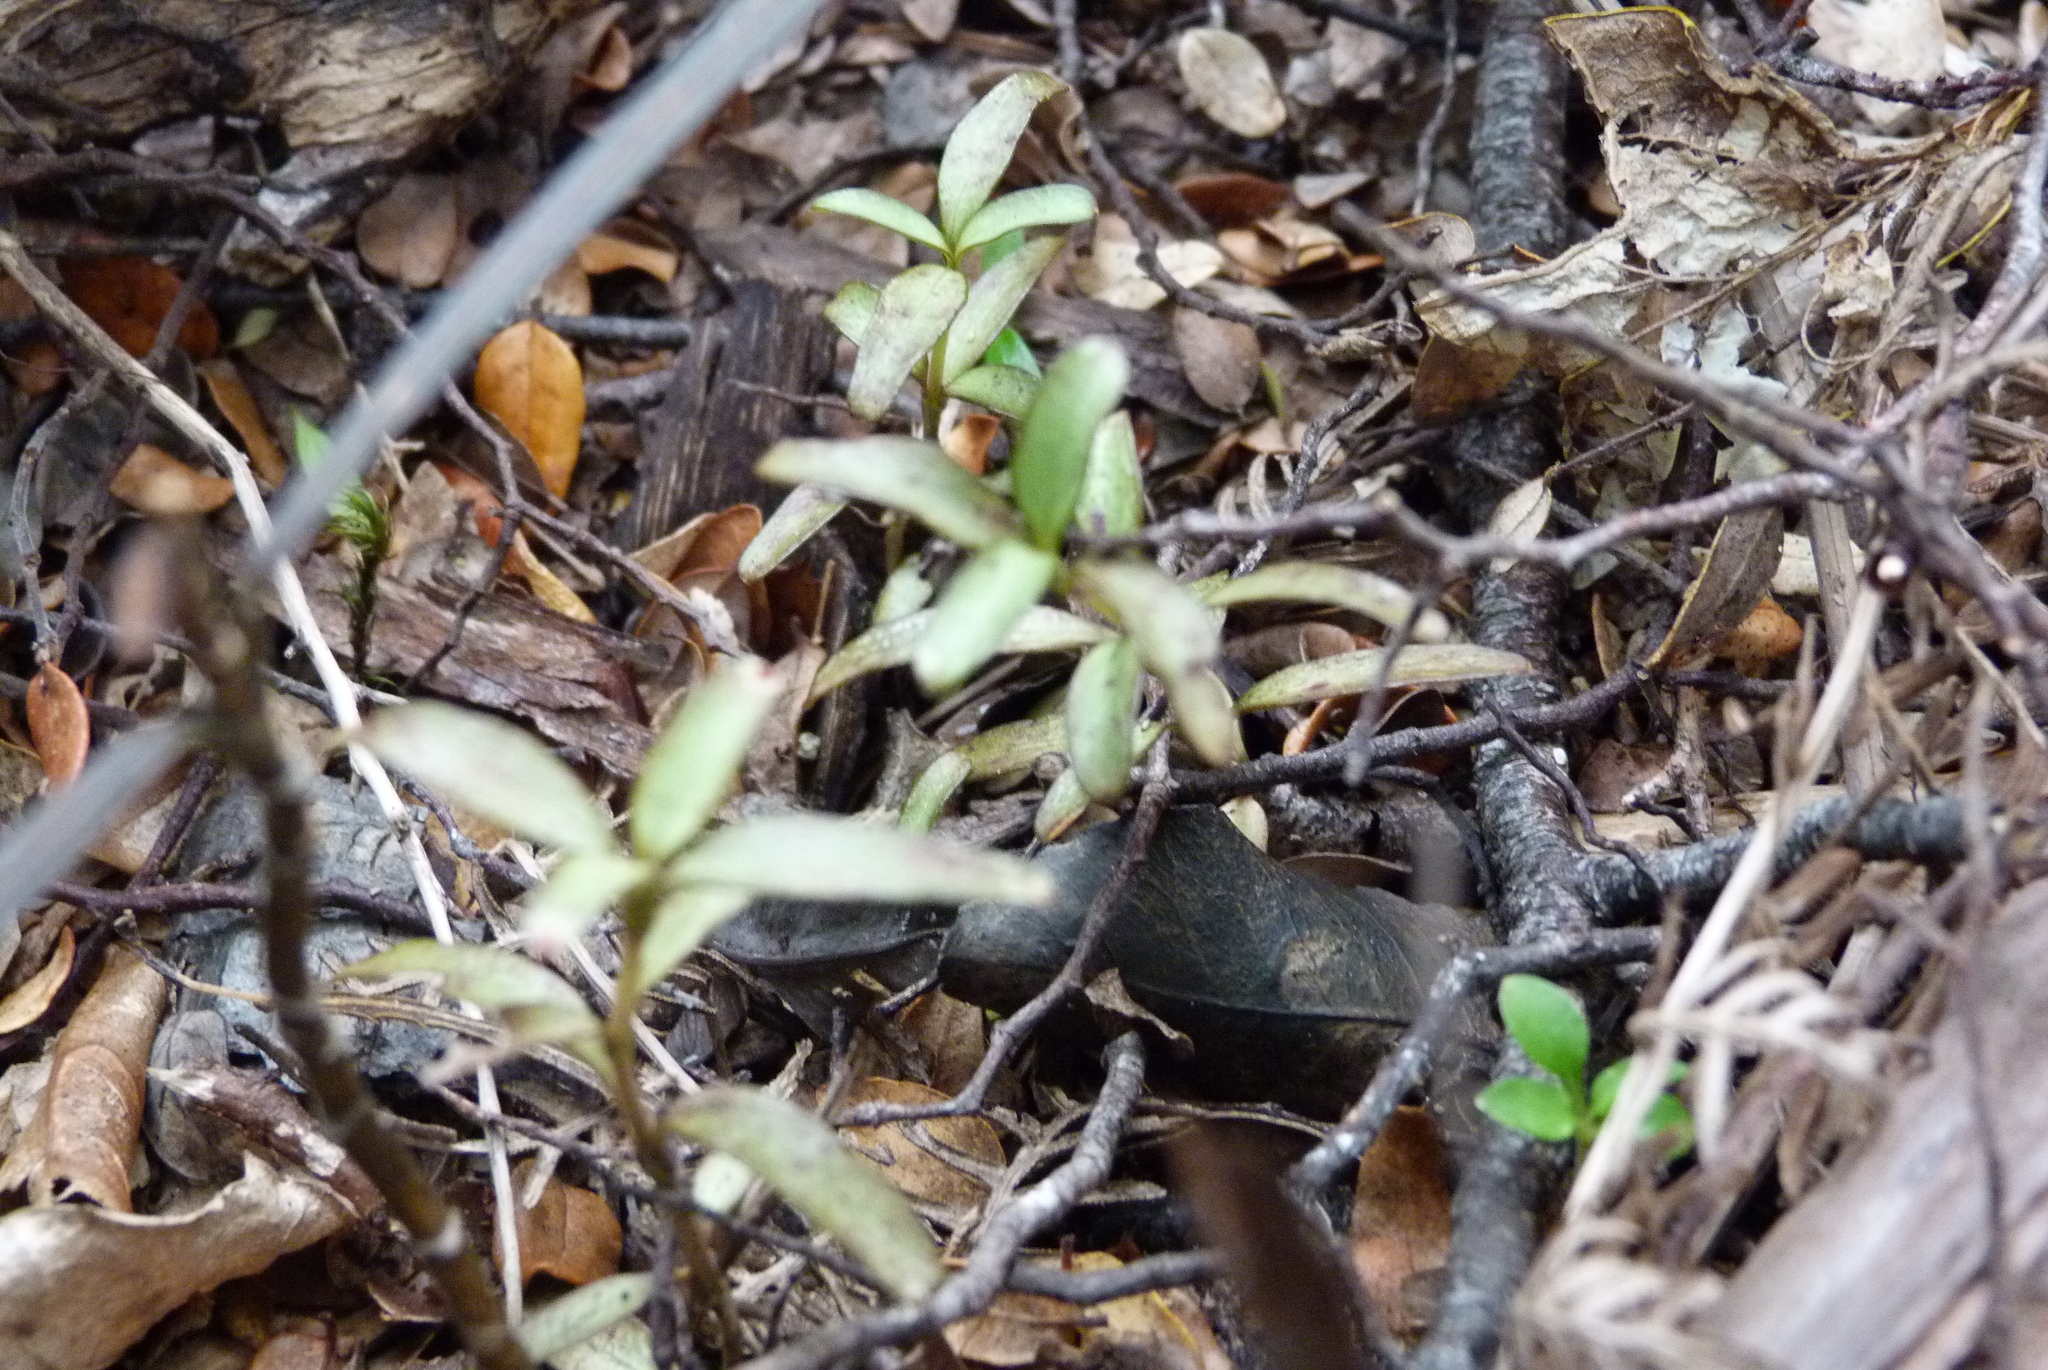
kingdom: Plantae
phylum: Tracheophyta
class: Magnoliopsida
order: Gentianales
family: Rubiaceae
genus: Coprosma
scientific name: Coprosma colensoi
